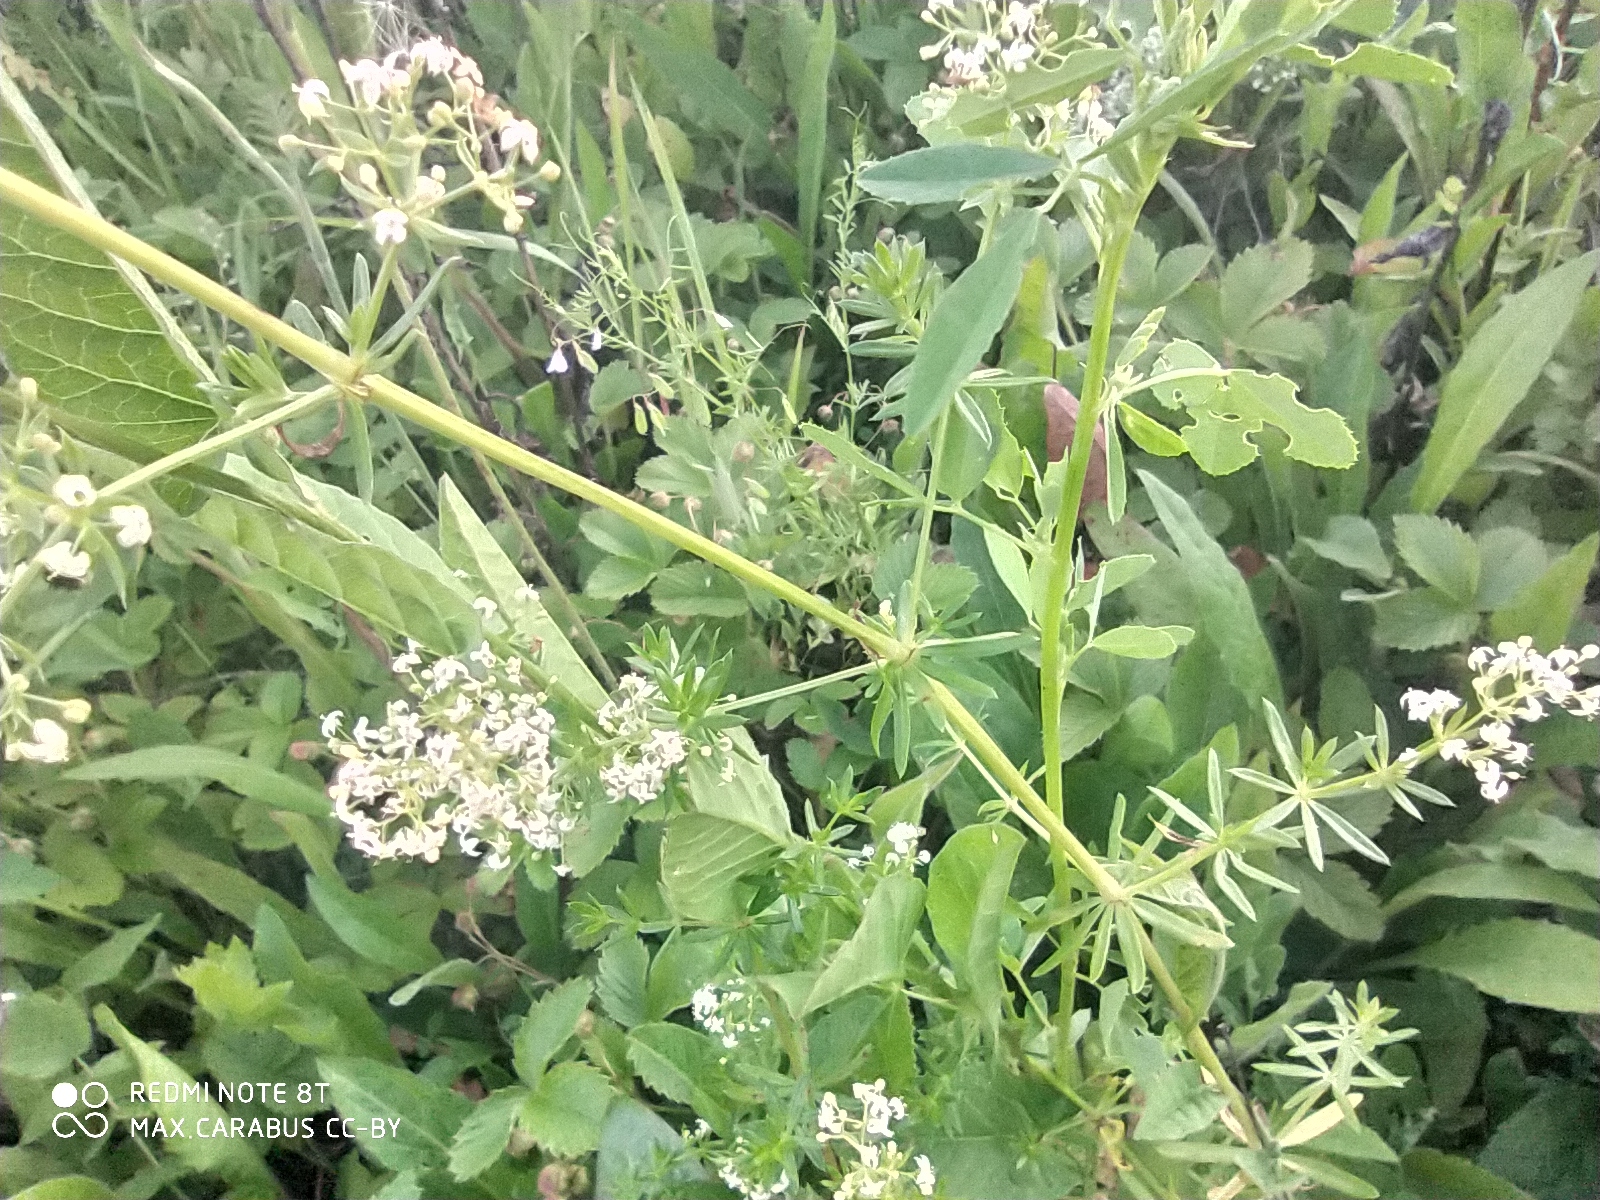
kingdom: Plantae
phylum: Tracheophyta
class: Magnoliopsida
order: Gentianales
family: Rubiaceae
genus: Galium
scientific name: Galium mollugo
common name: Hedge bedstraw
